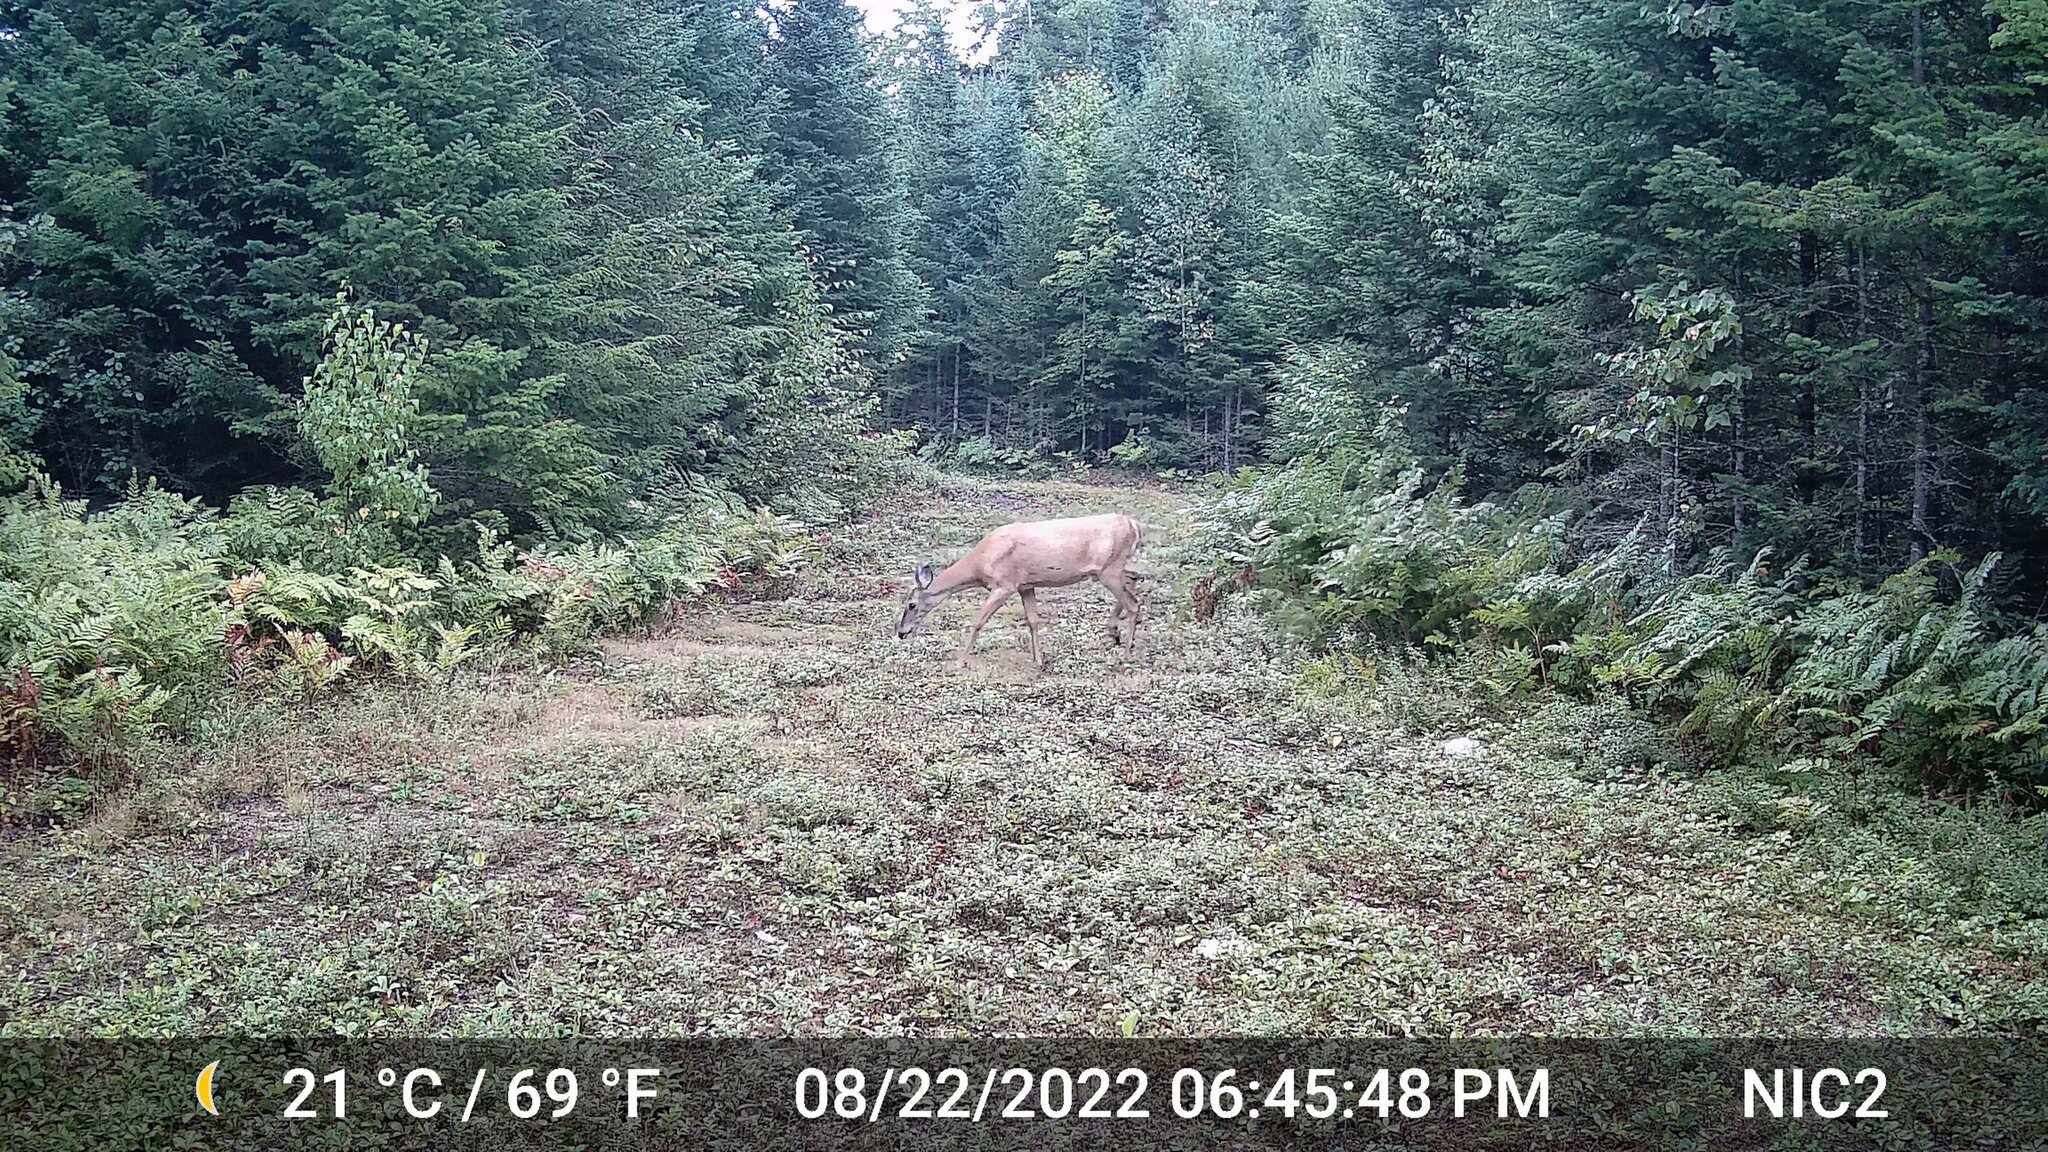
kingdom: Animalia
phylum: Chordata
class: Mammalia
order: Artiodactyla
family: Cervidae
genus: Odocoileus
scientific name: Odocoileus virginianus
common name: White-tailed deer
